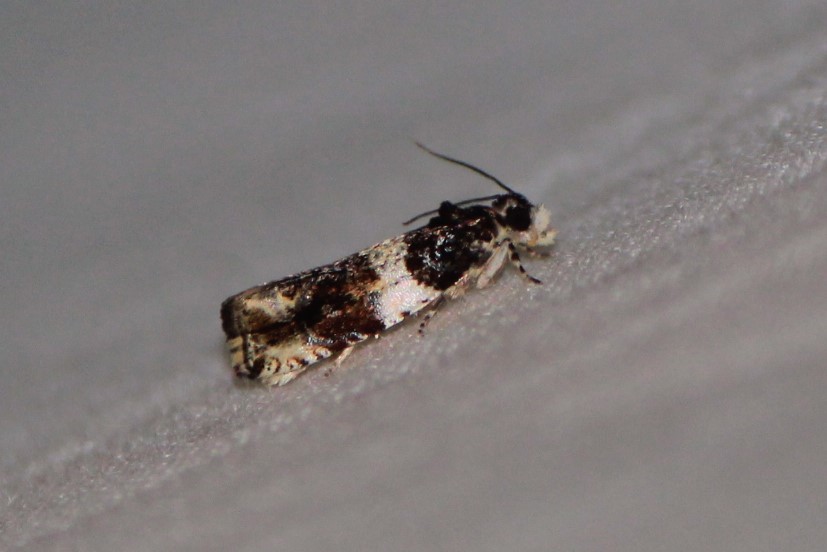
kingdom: Animalia
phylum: Arthropoda
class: Insecta
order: Lepidoptera
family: Tortricidae
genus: Olethreutes
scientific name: Olethreutes fasciatana
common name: Banded olethreutes moth
